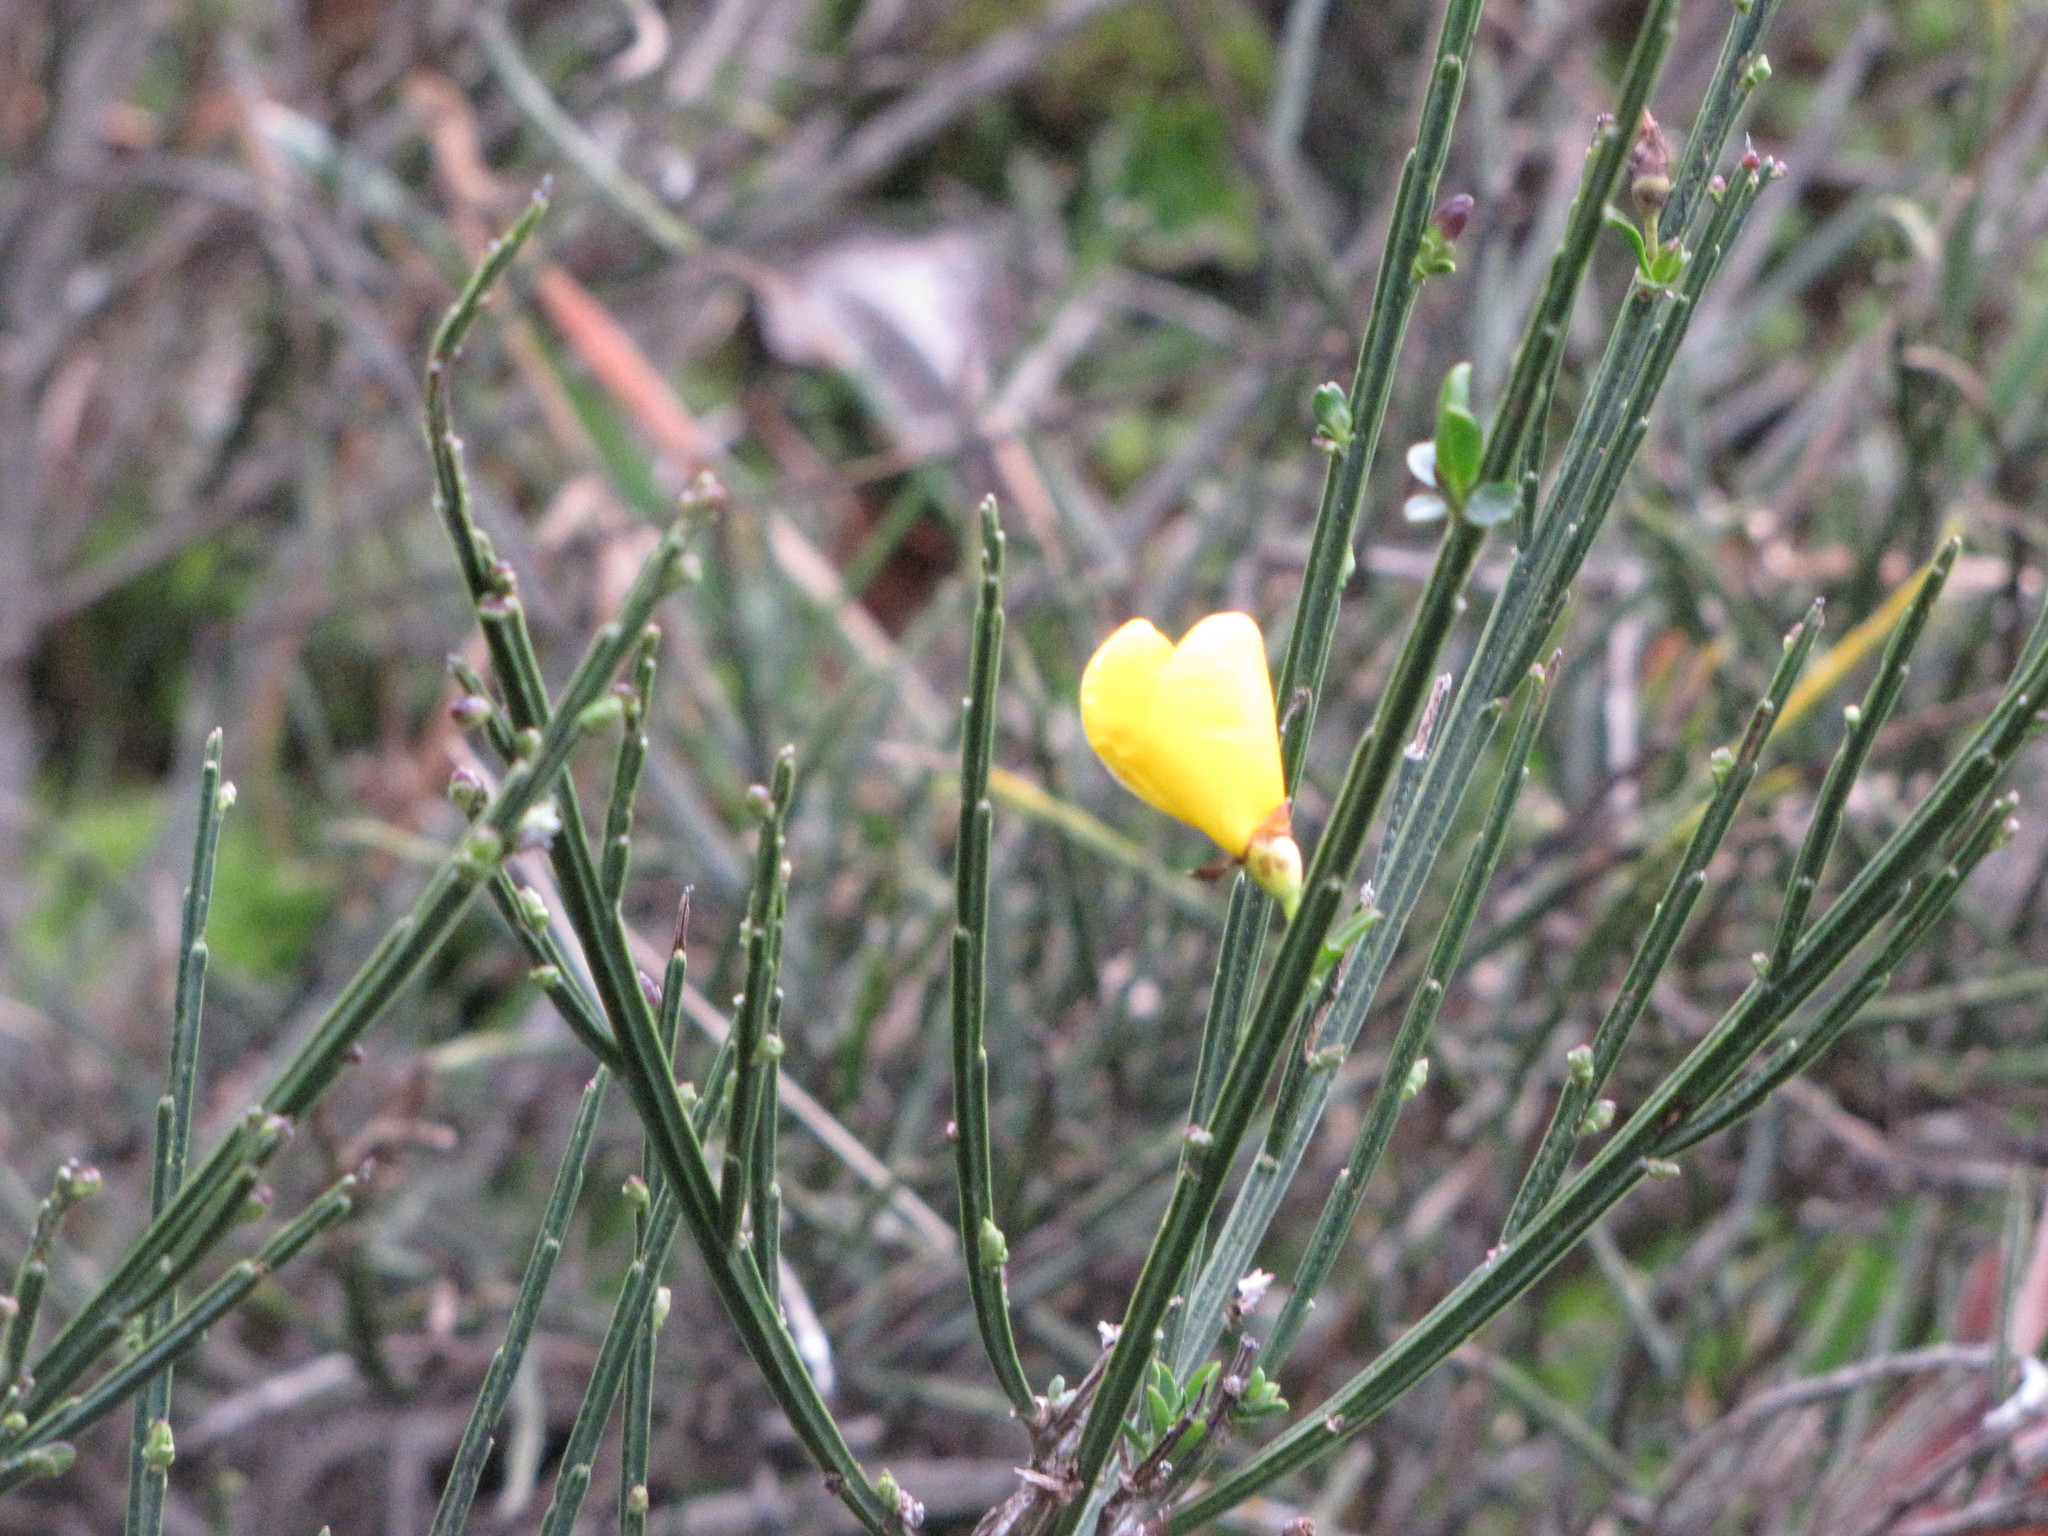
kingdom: Plantae
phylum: Tracheophyta
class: Magnoliopsida
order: Fabales
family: Fabaceae
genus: Cytisus
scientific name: Cytisus scoparius
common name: Scotch broom
